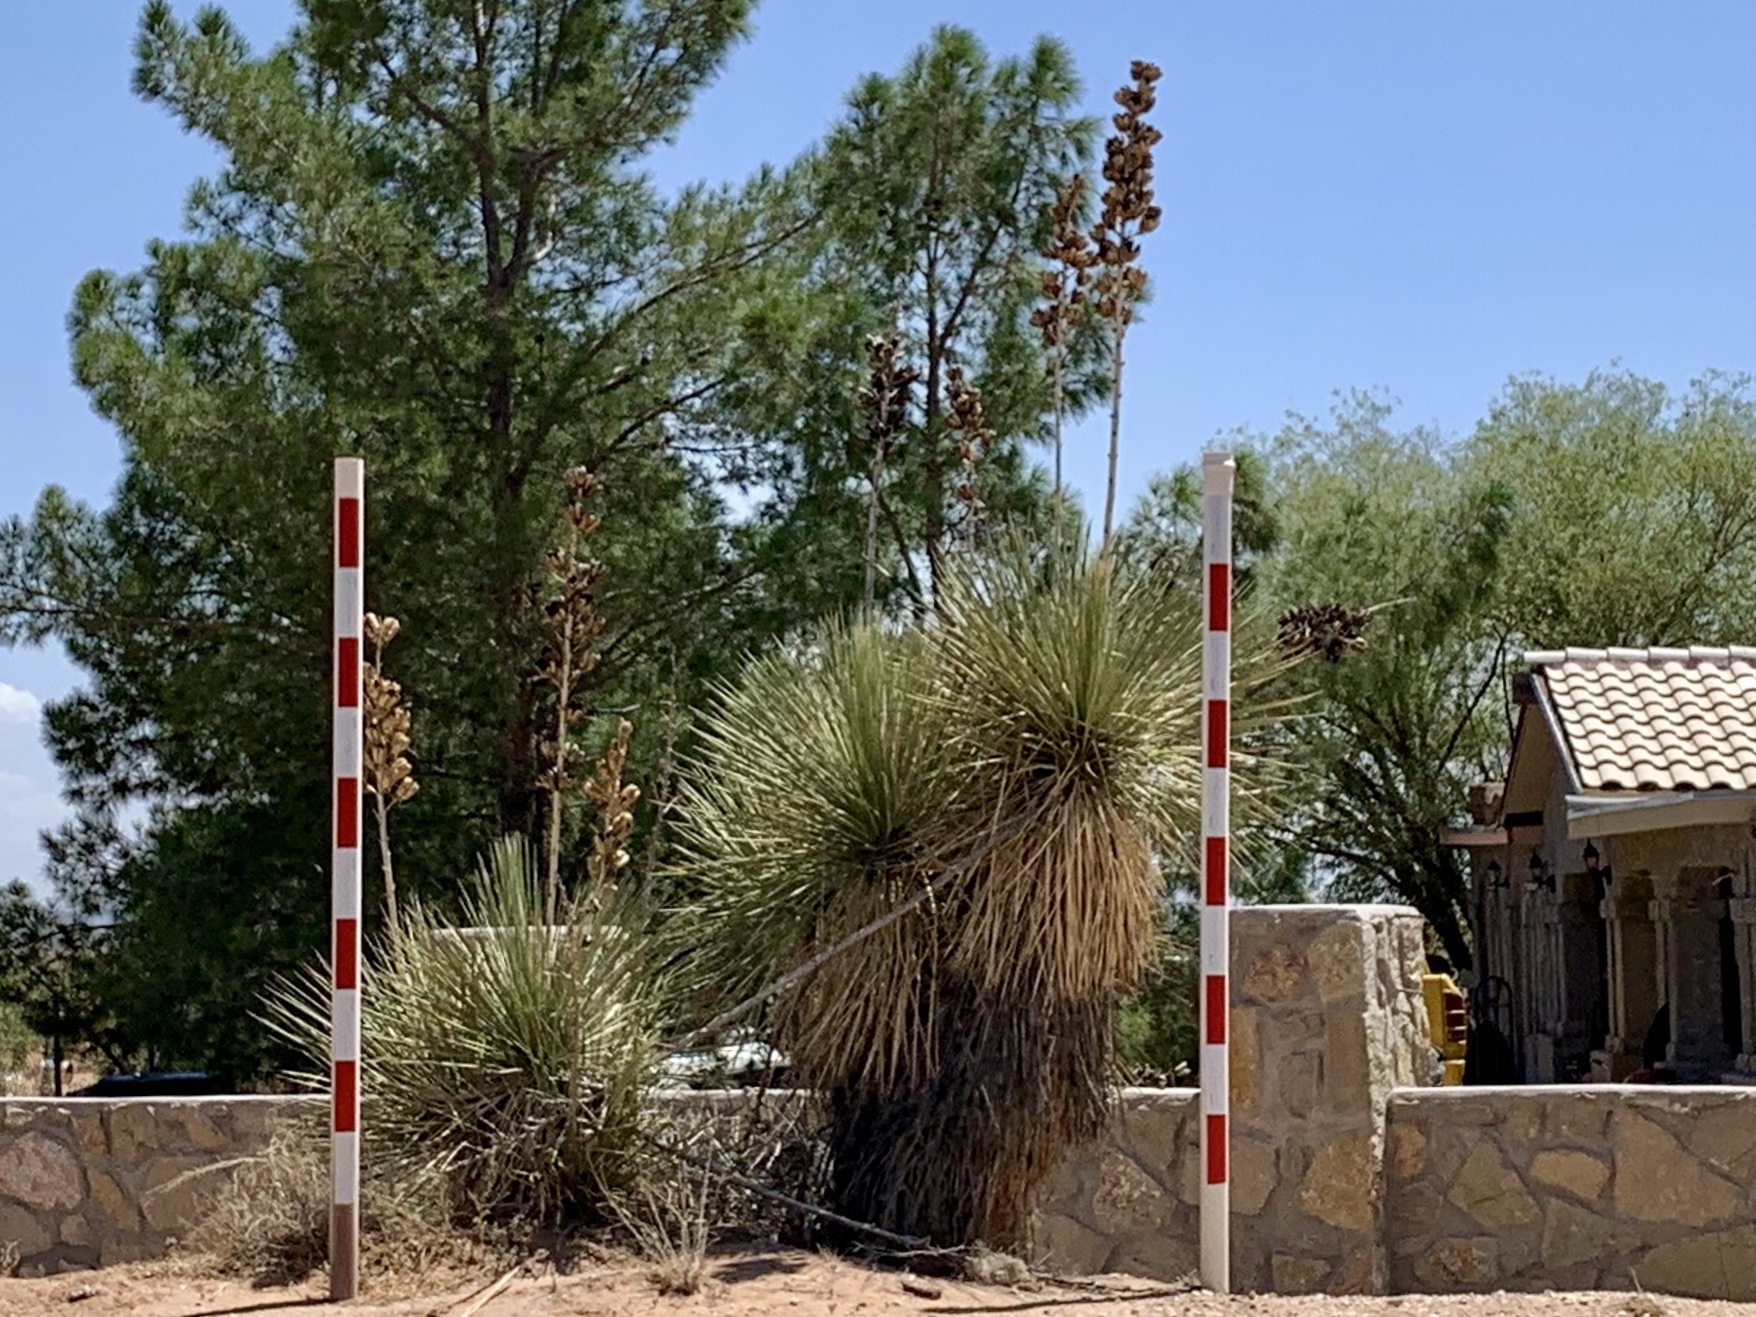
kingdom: Plantae
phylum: Tracheophyta
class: Liliopsida
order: Asparagales
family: Asparagaceae
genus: Yucca
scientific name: Yucca elata
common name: Palmella
